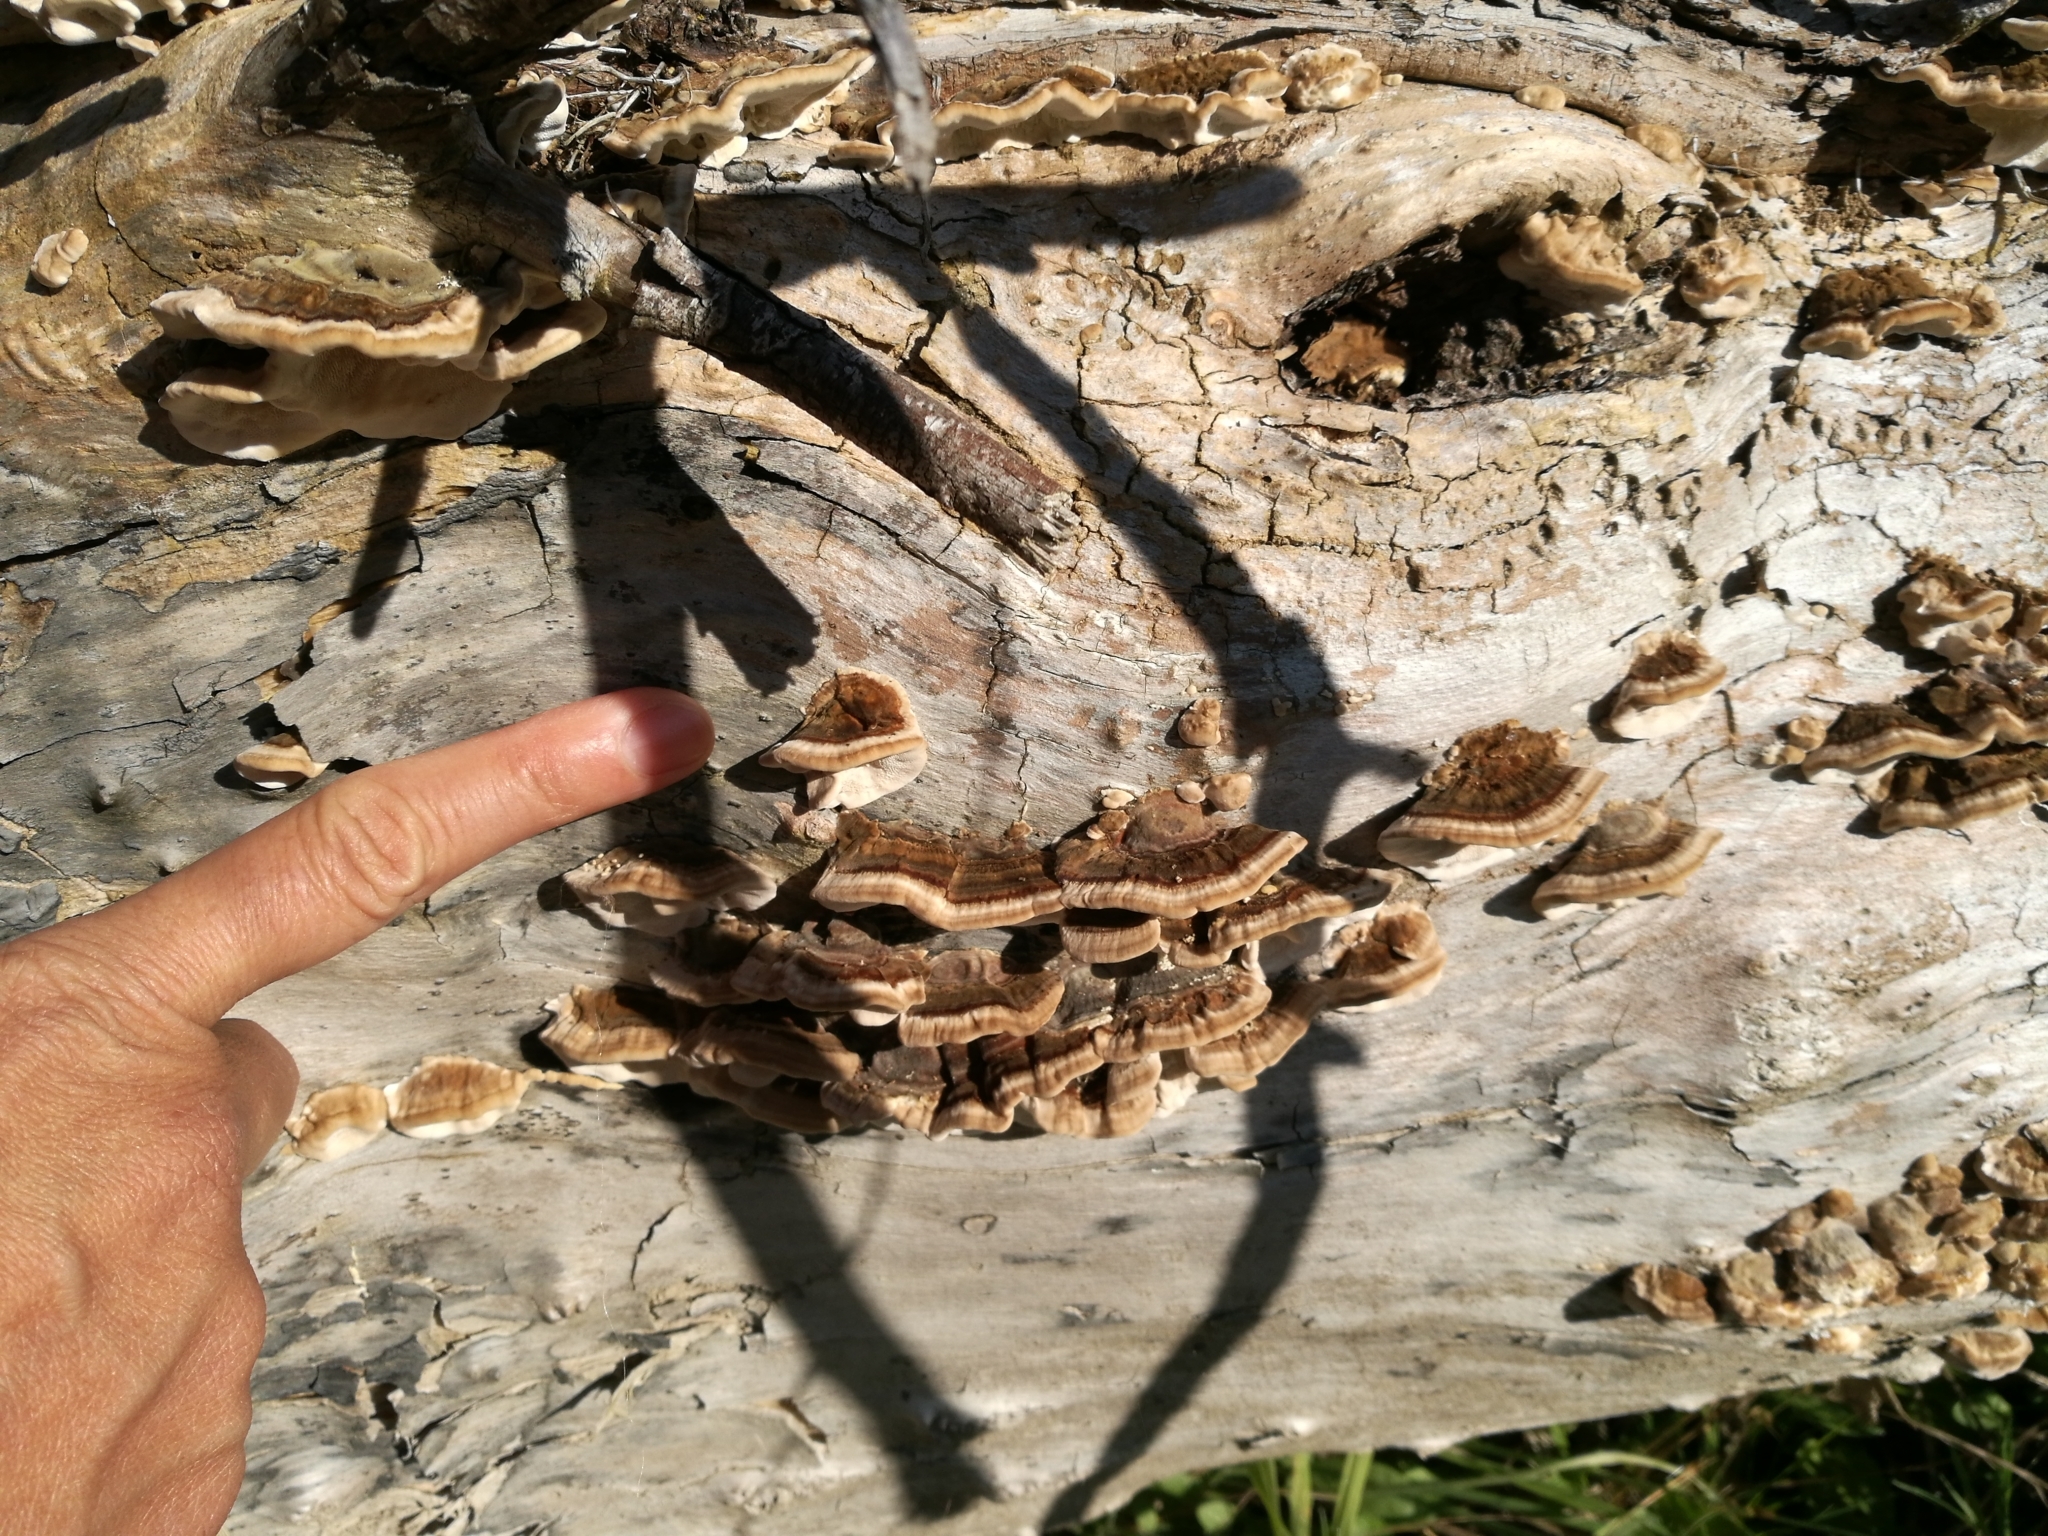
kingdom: Fungi
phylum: Basidiomycota
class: Agaricomycetes
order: Polyporales
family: Polyporaceae
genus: Trametes
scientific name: Trametes versicolor
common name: Turkeytail
